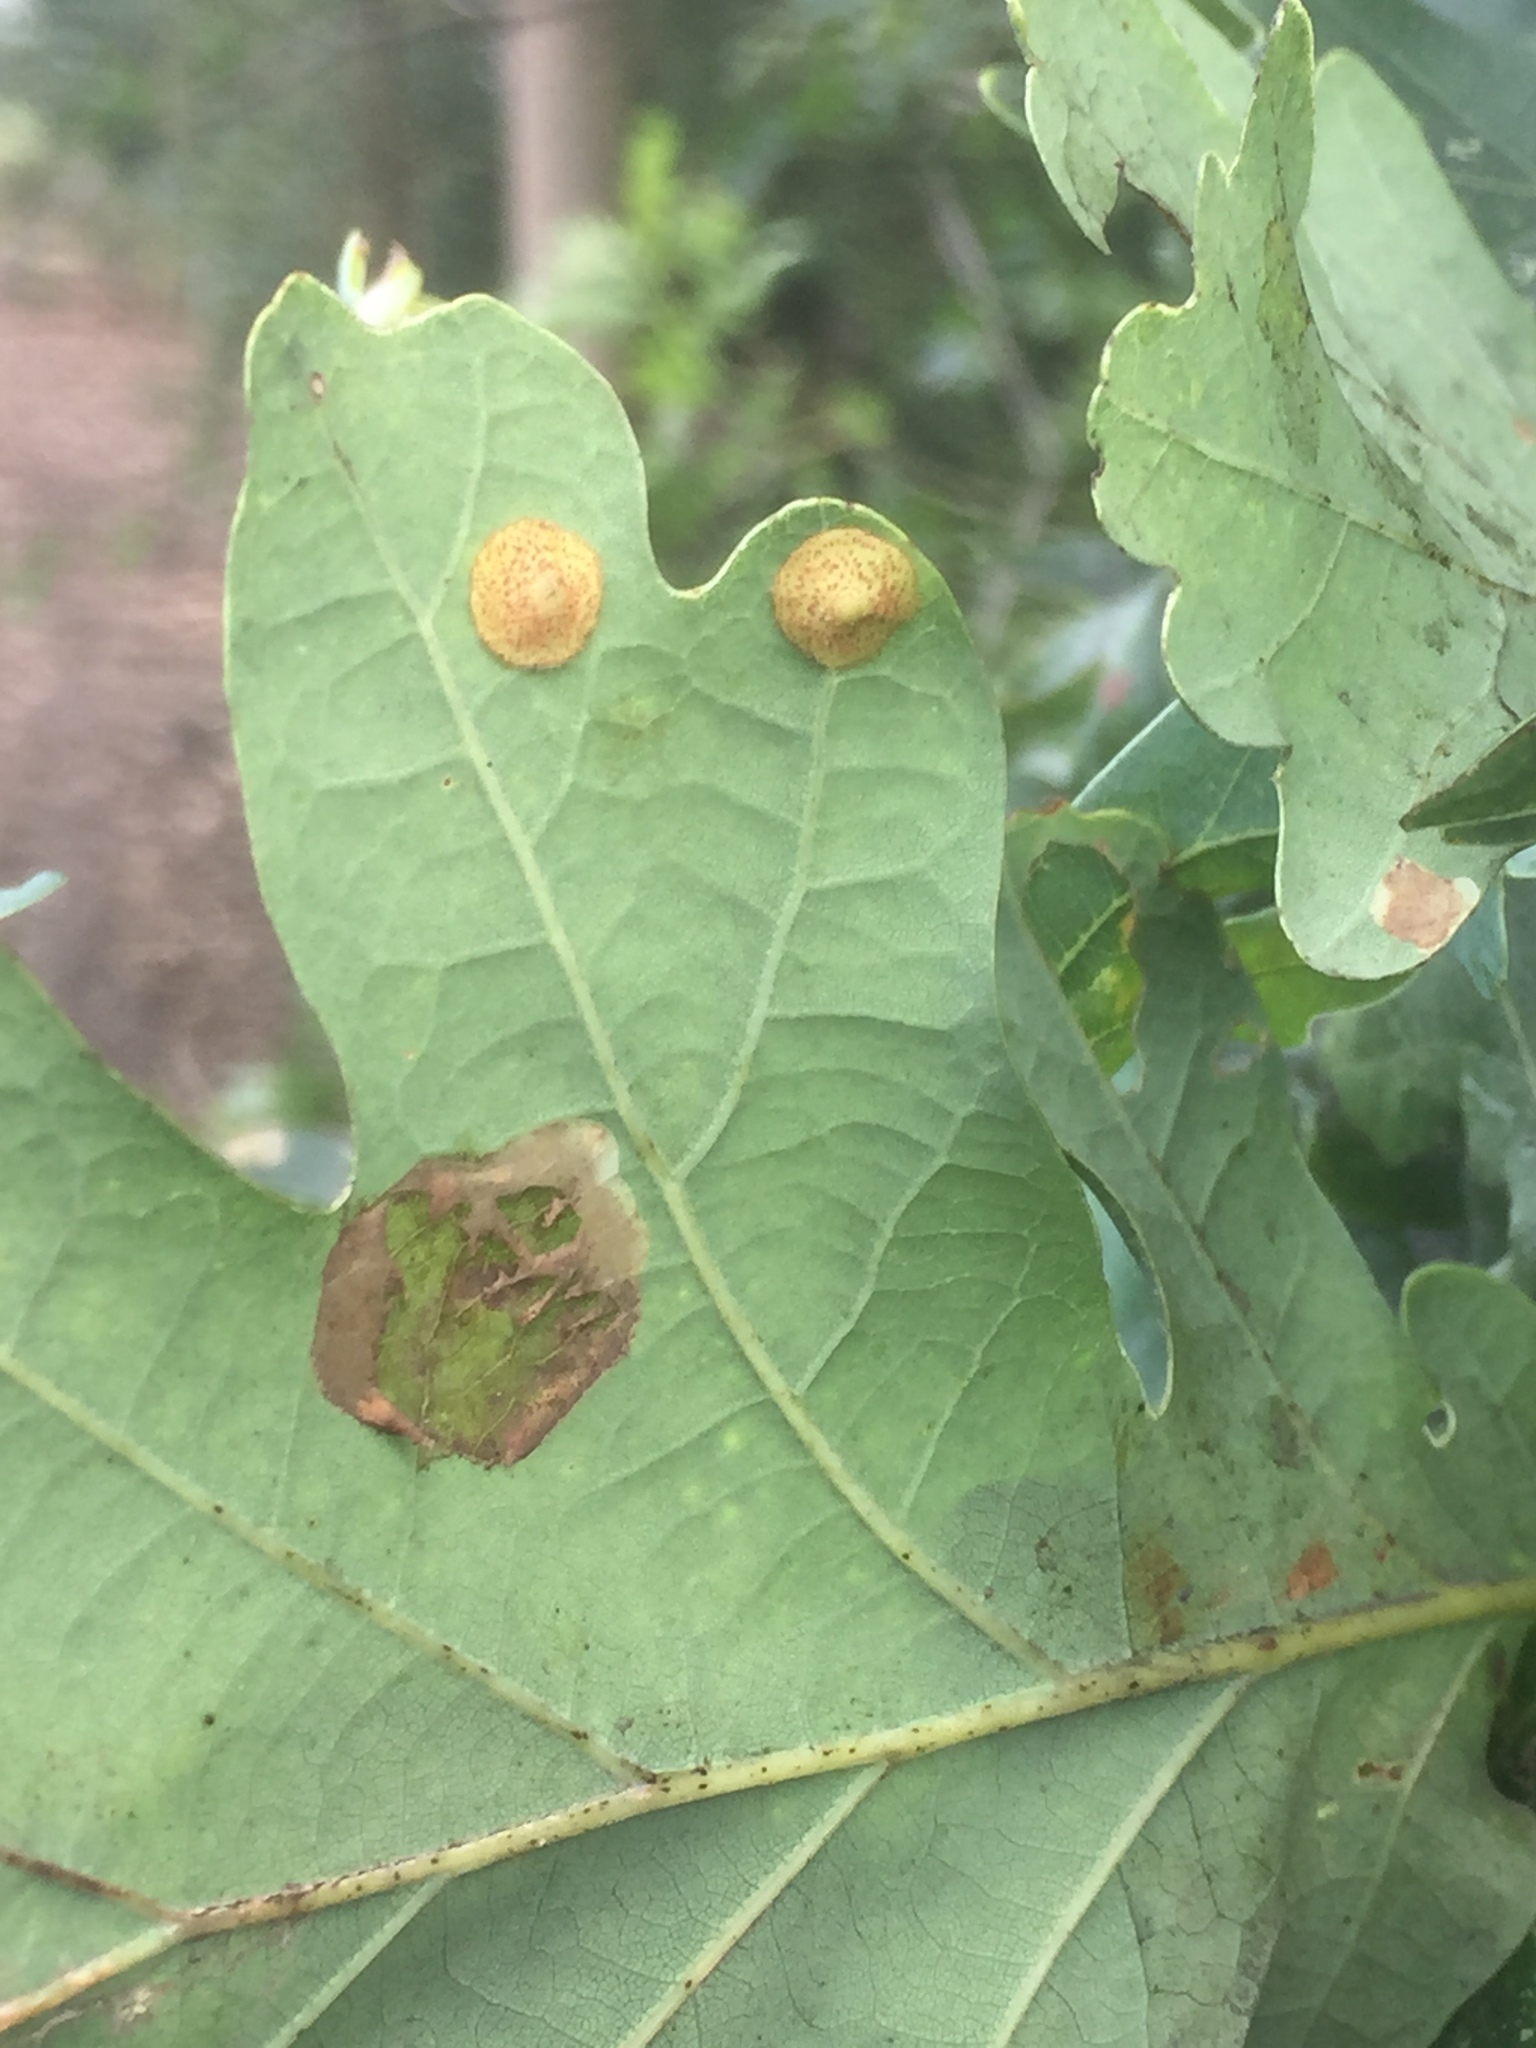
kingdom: Animalia
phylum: Arthropoda
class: Insecta
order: Hymenoptera
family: Cynipidae
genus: Neuroterus
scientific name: Neuroterus quercusbaccarum
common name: Common spangle gall
